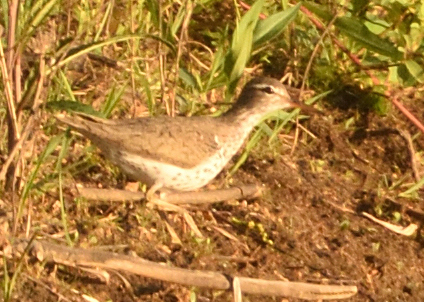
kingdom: Animalia
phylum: Chordata
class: Aves
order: Charadriiformes
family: Scolopacidae
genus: Actitis
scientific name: Actitis macularius
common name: Spotted sandpiper
